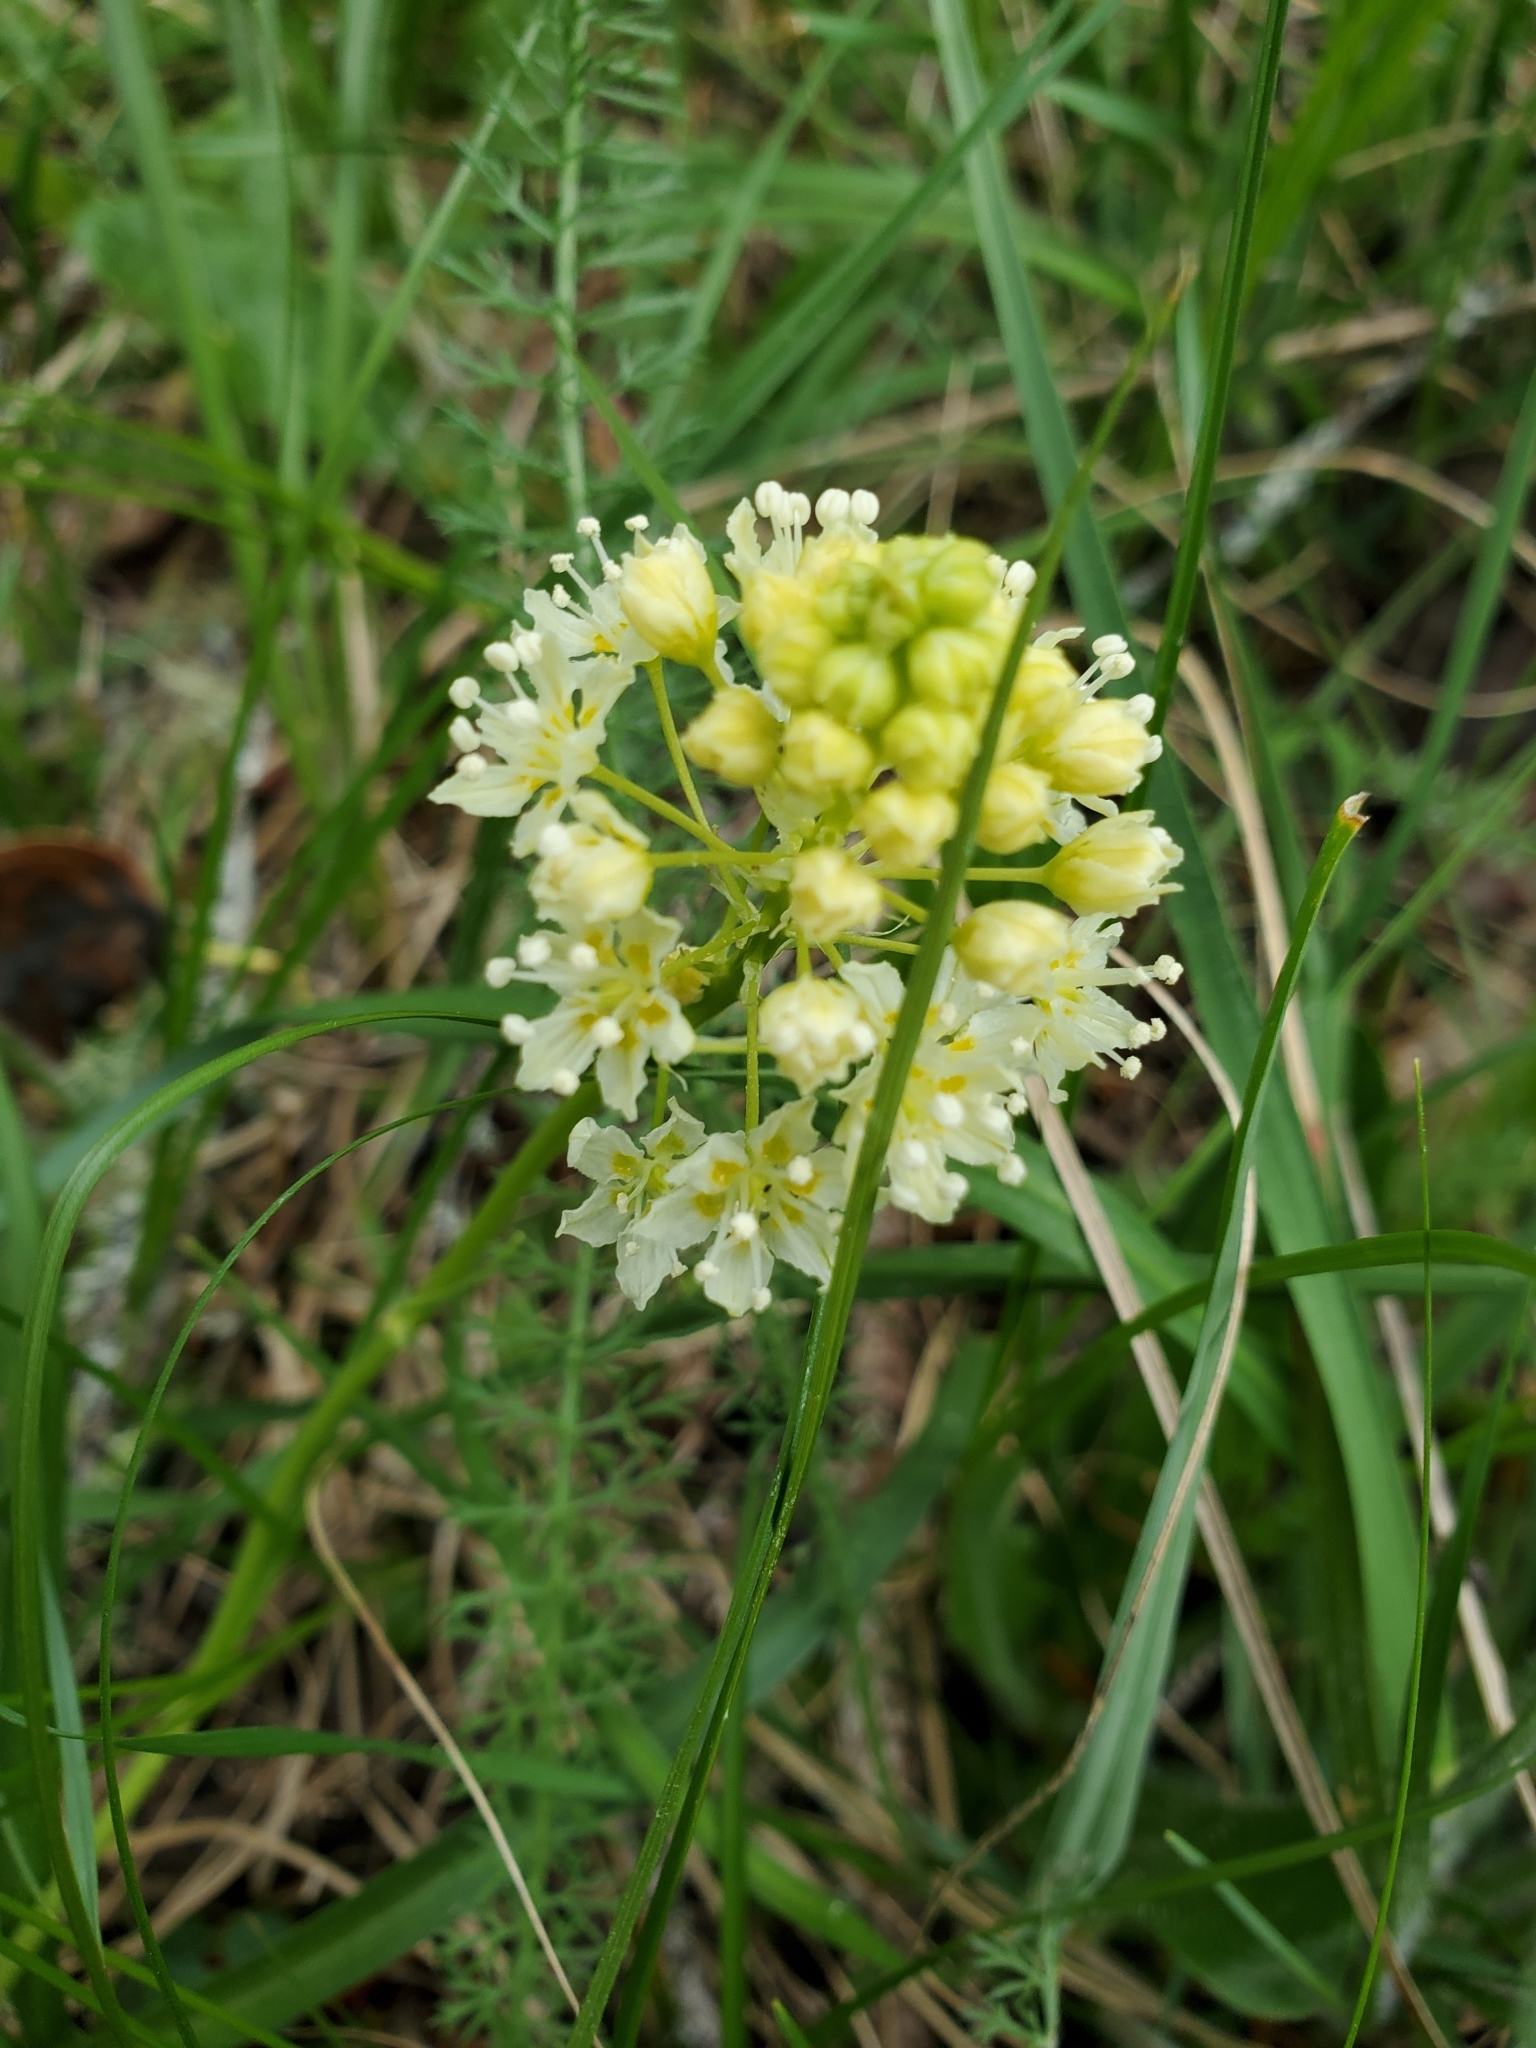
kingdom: Plantae
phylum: Tracheophyta
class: Liliopsida
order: Liliales
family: Melanthiaceae
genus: Toxicoscordion
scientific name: Toxicoscordion venenosum
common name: Meadow death camas
